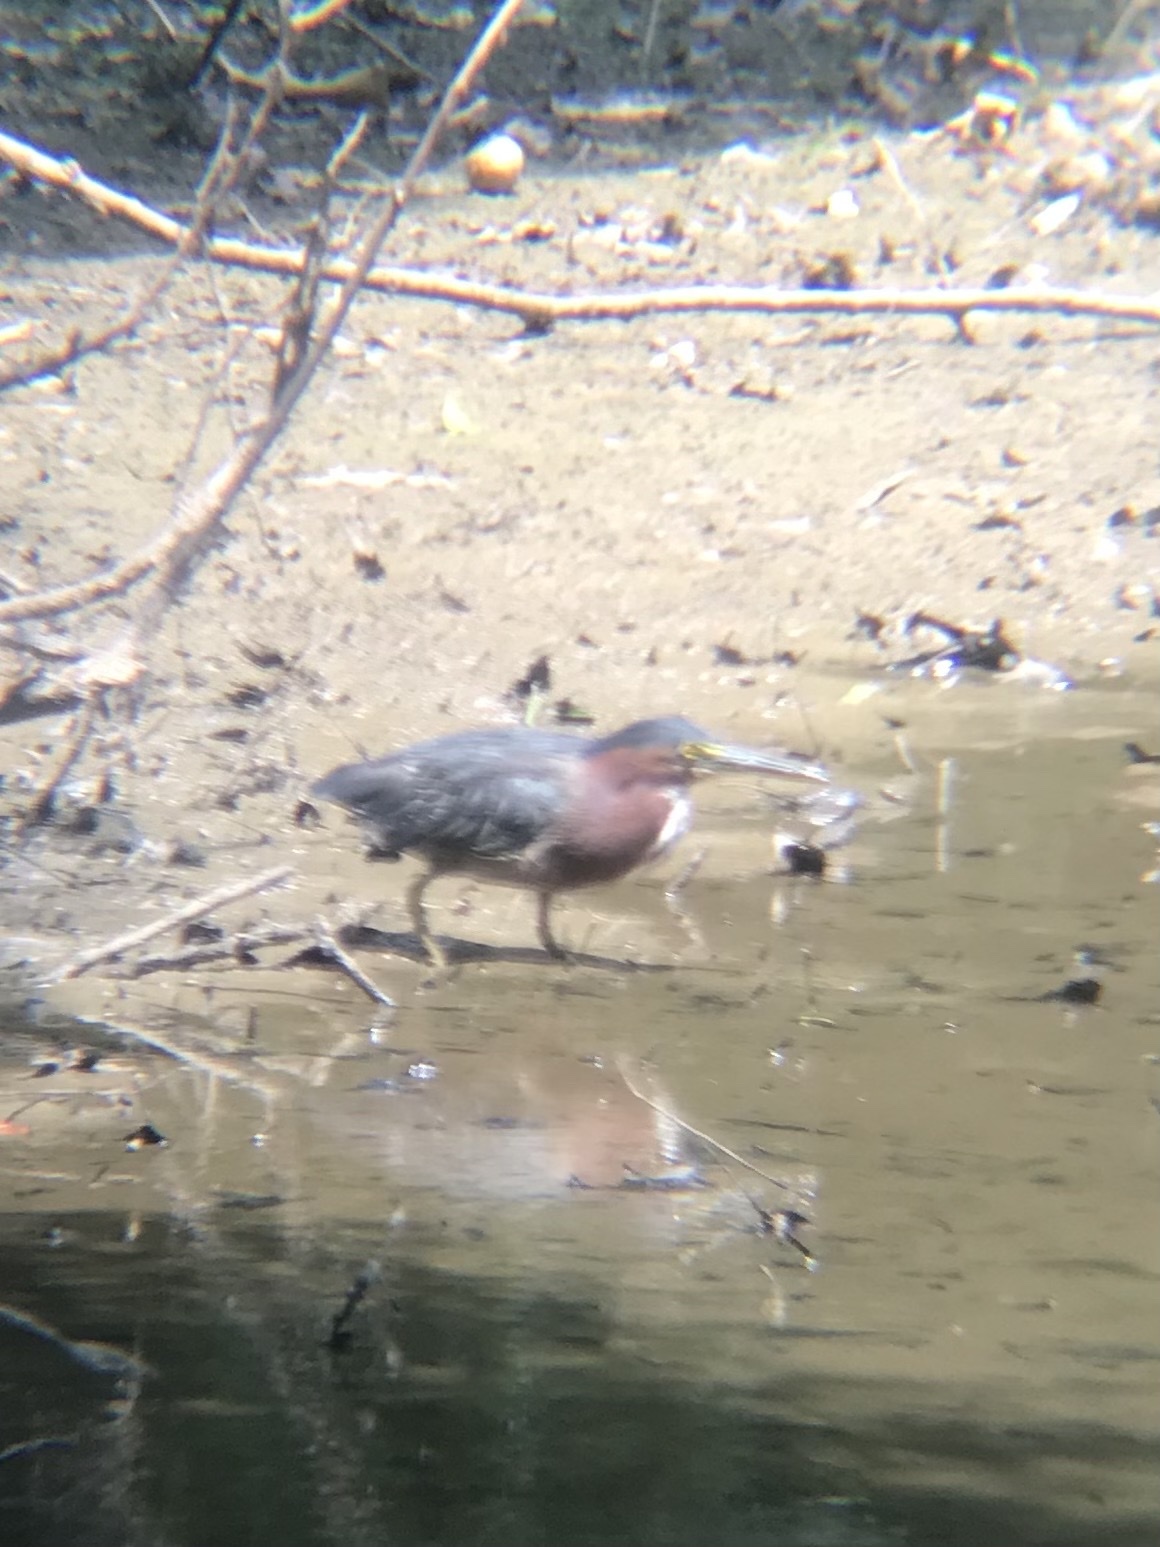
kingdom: Animalia
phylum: Chordata
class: Aves
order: Pelecaniformes
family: Ardeidae
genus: Butorides
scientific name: Butorides virescens
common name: Green heron
